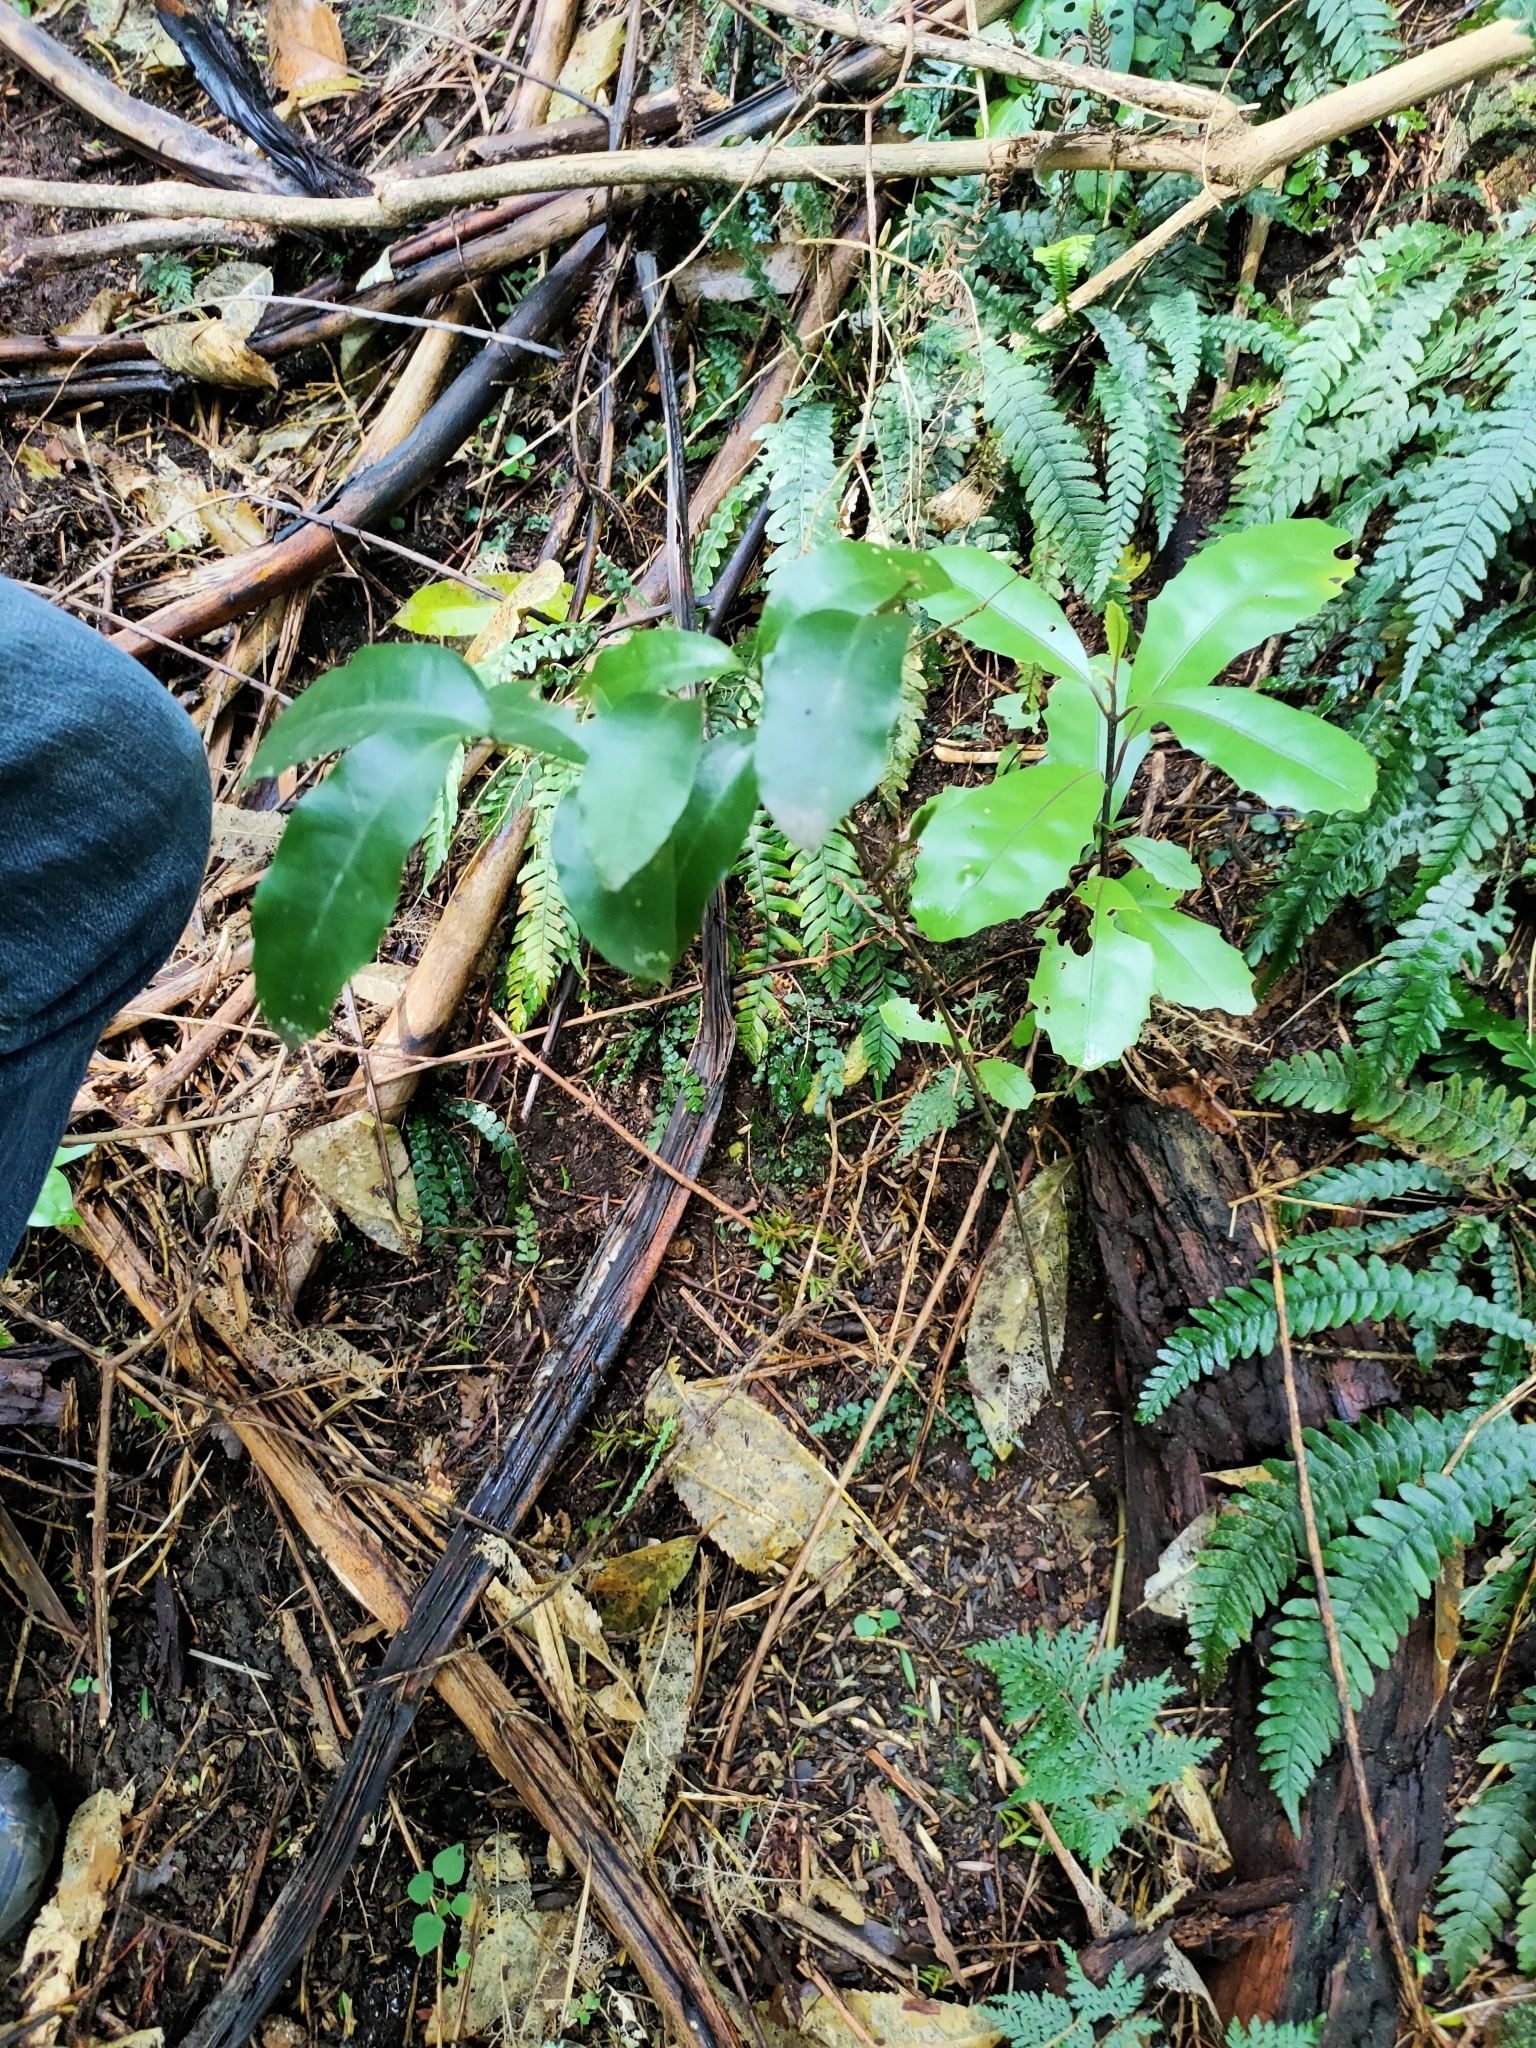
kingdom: Plantae
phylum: Tracheophyta
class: Liliopsida
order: Liliales
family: Ripogonaceae
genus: Ripogonum
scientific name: Ripogonum scandens
